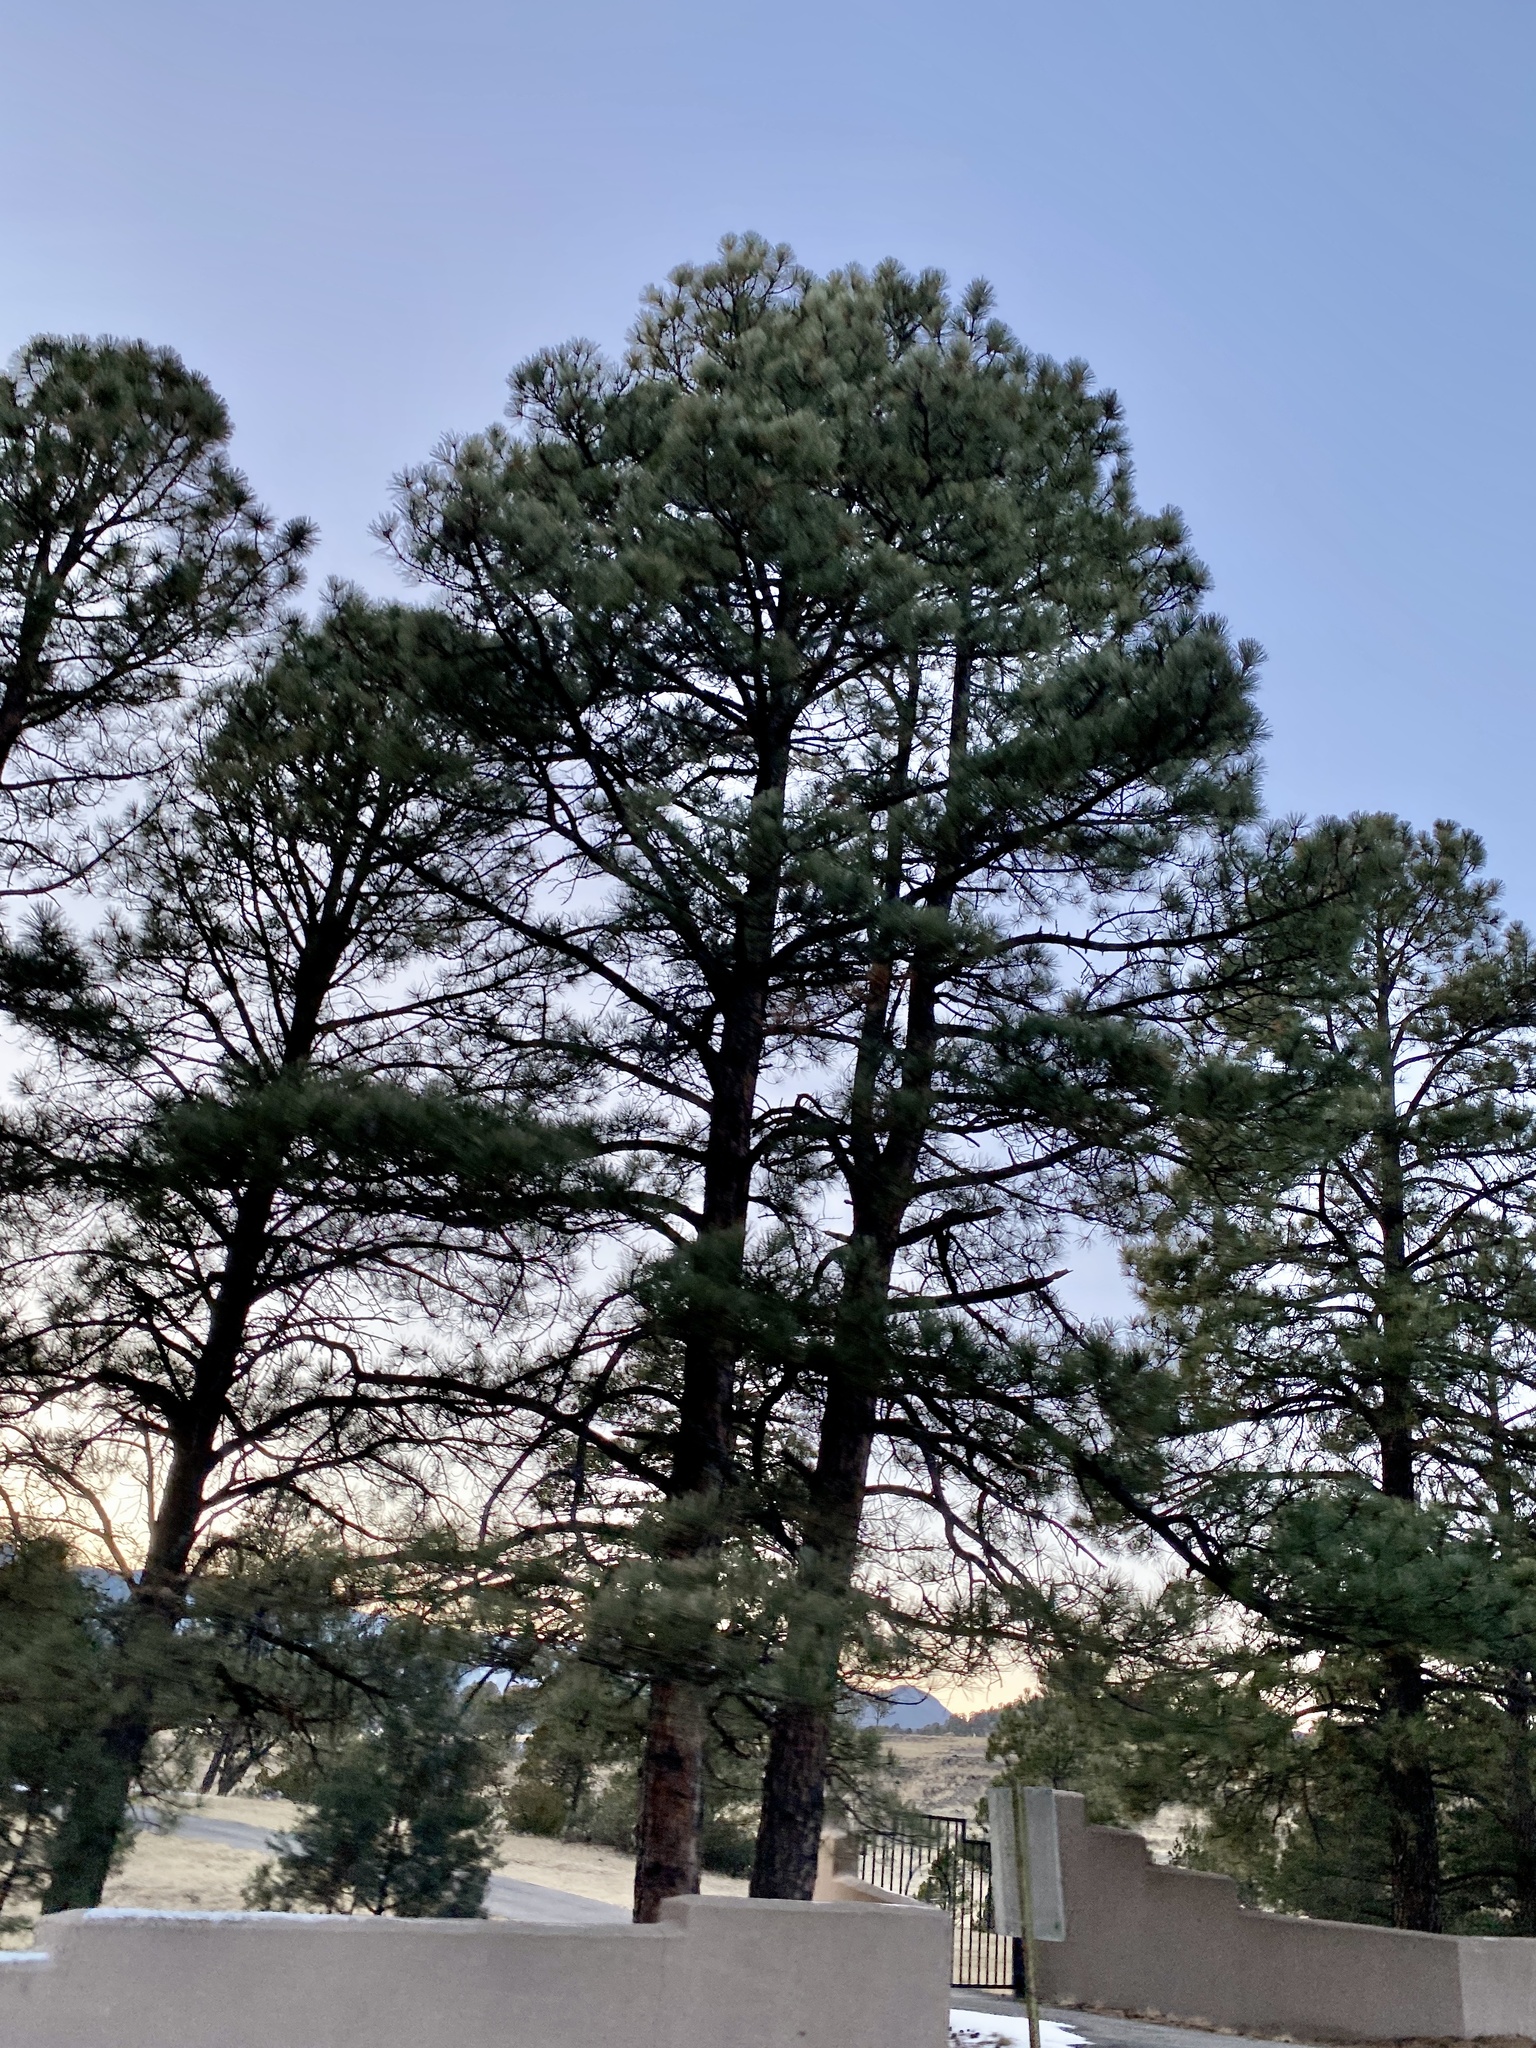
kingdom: Plantae
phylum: Tracheophyta
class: Pinopsida
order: Pinales
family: Pinaceae
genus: Pinus
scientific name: Pinus ponderosa
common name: Western yellow-pine
